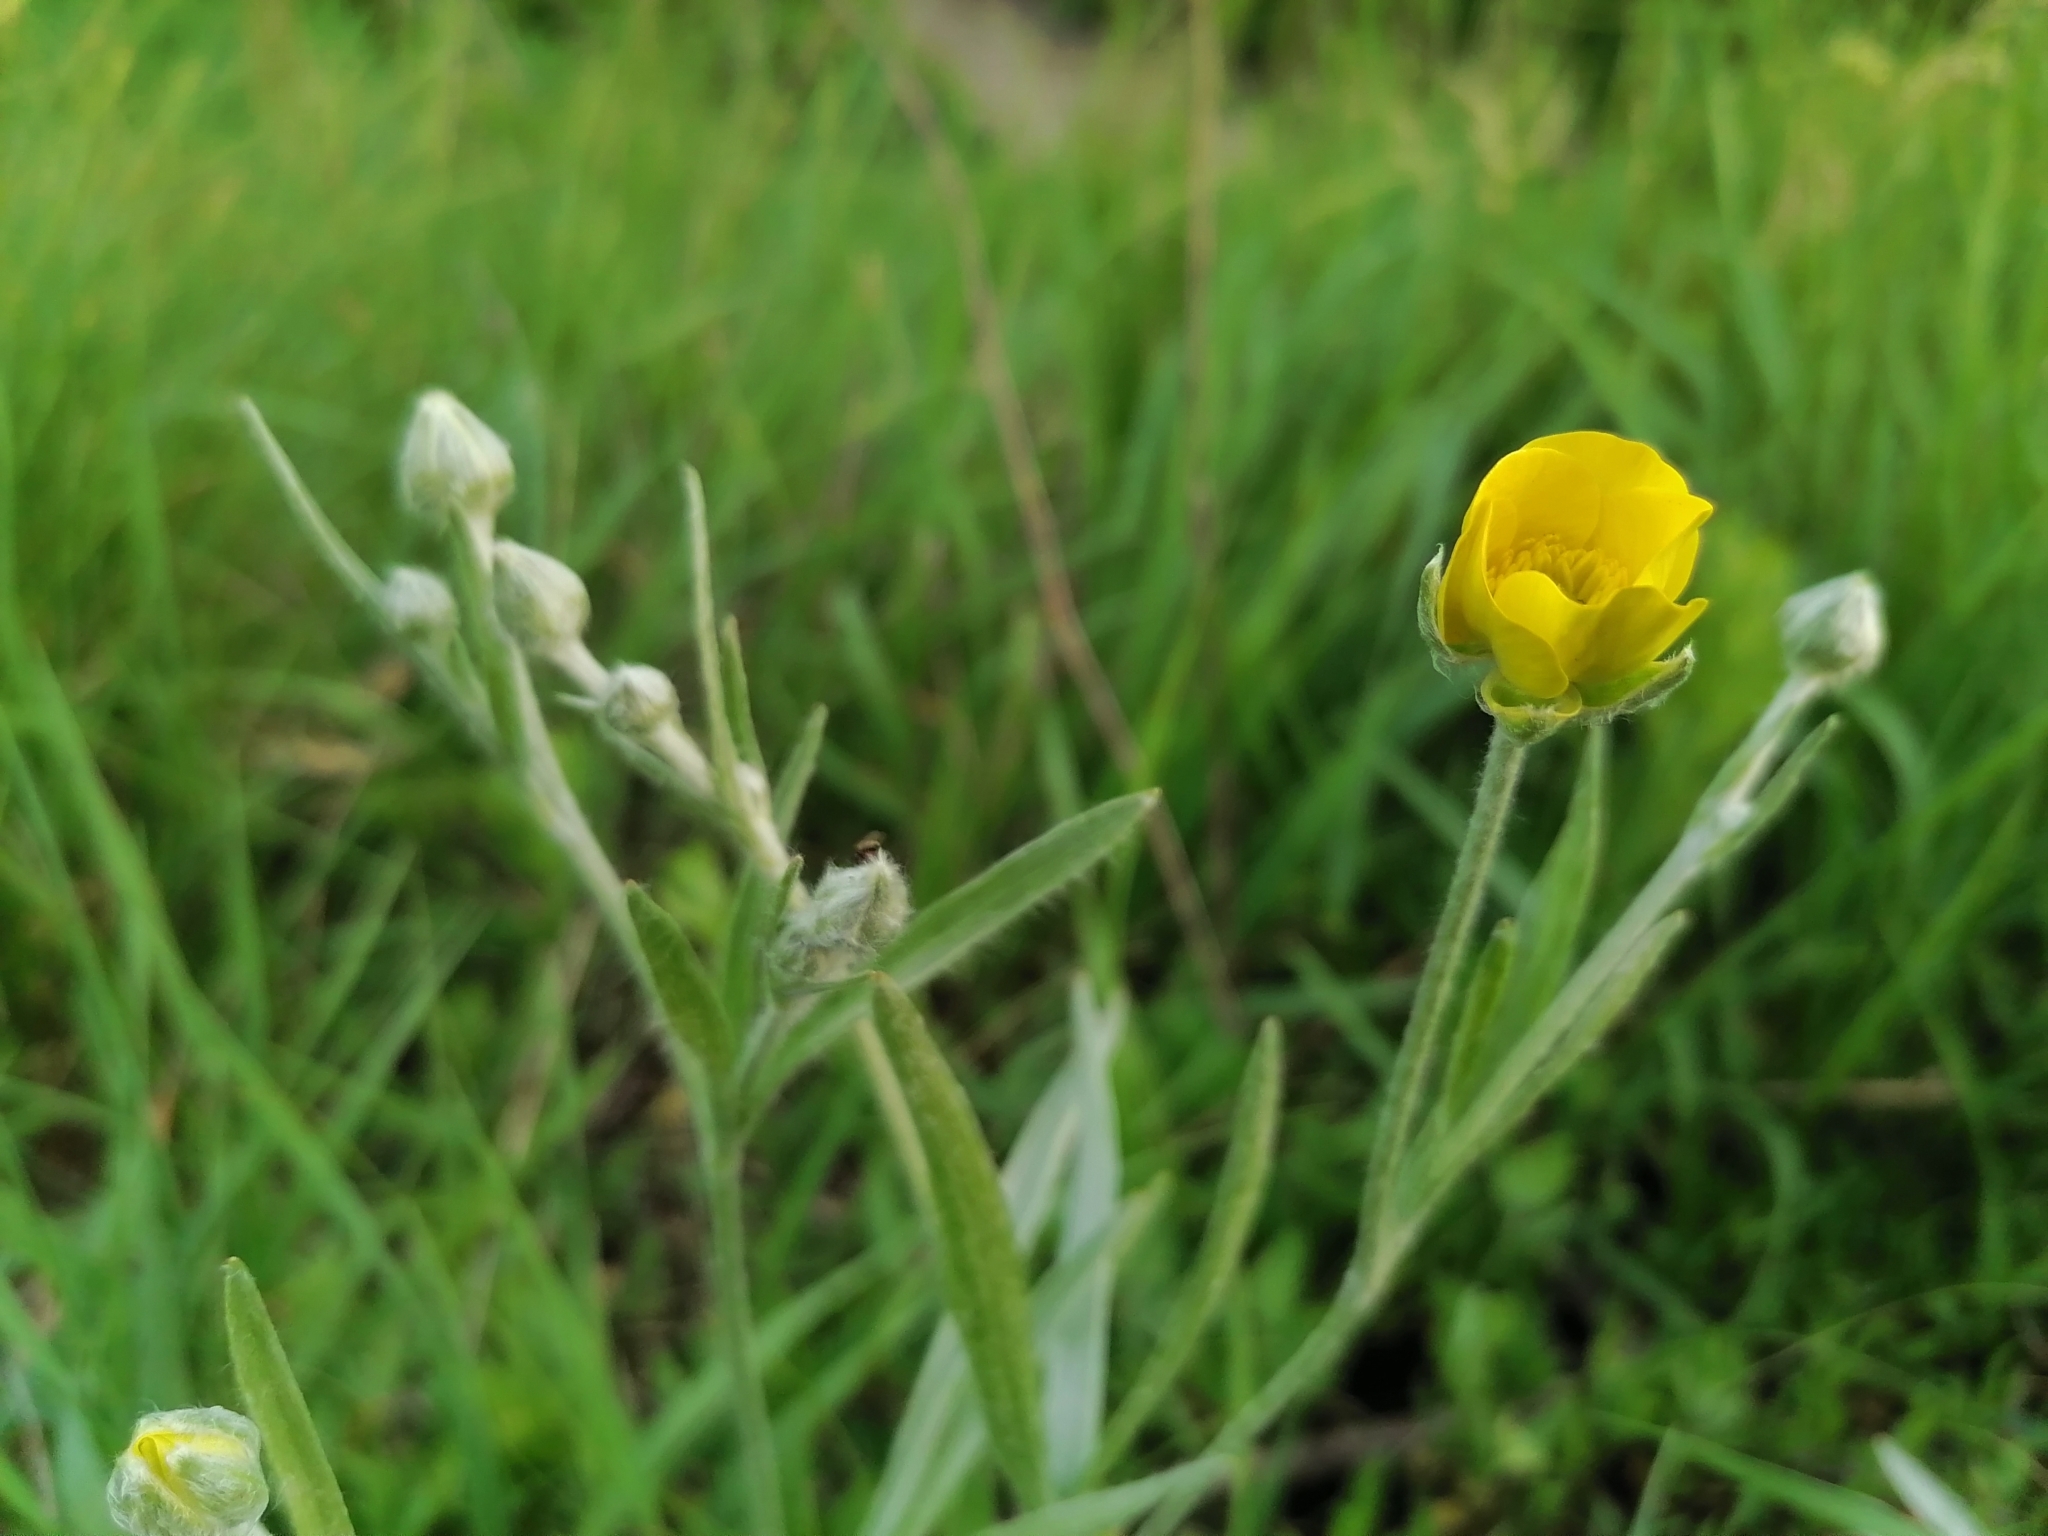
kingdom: Plantae
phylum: Tracheophyta
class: Magnoliopsida
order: Ranunculales
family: Ranunculaceae
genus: Ranunculus
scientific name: Ranunculus illyricus
